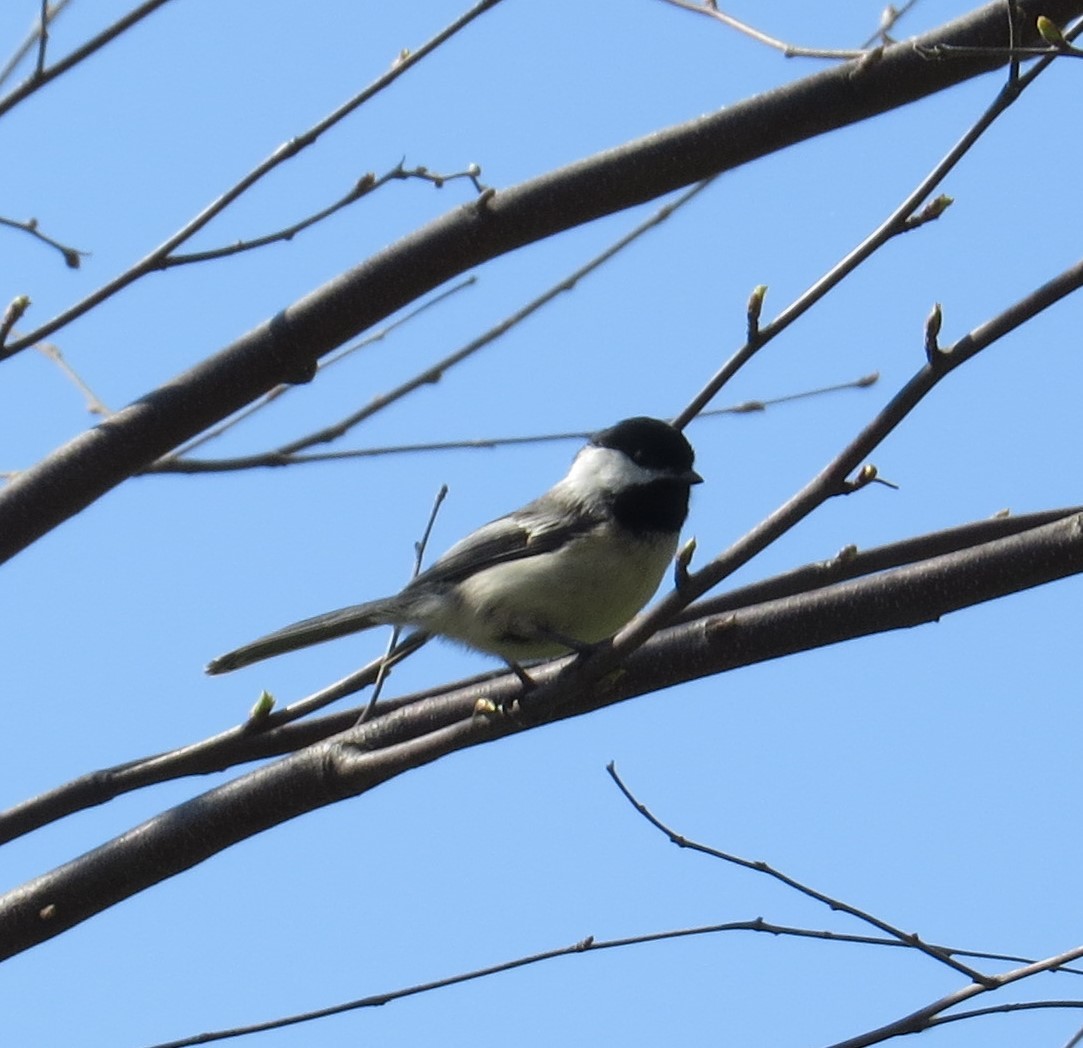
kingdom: Animalia
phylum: Chordata
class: Aves
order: Passeriformes
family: Paridae
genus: Poecile
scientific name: Poecile atricapillus
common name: Black-capped chickadee
